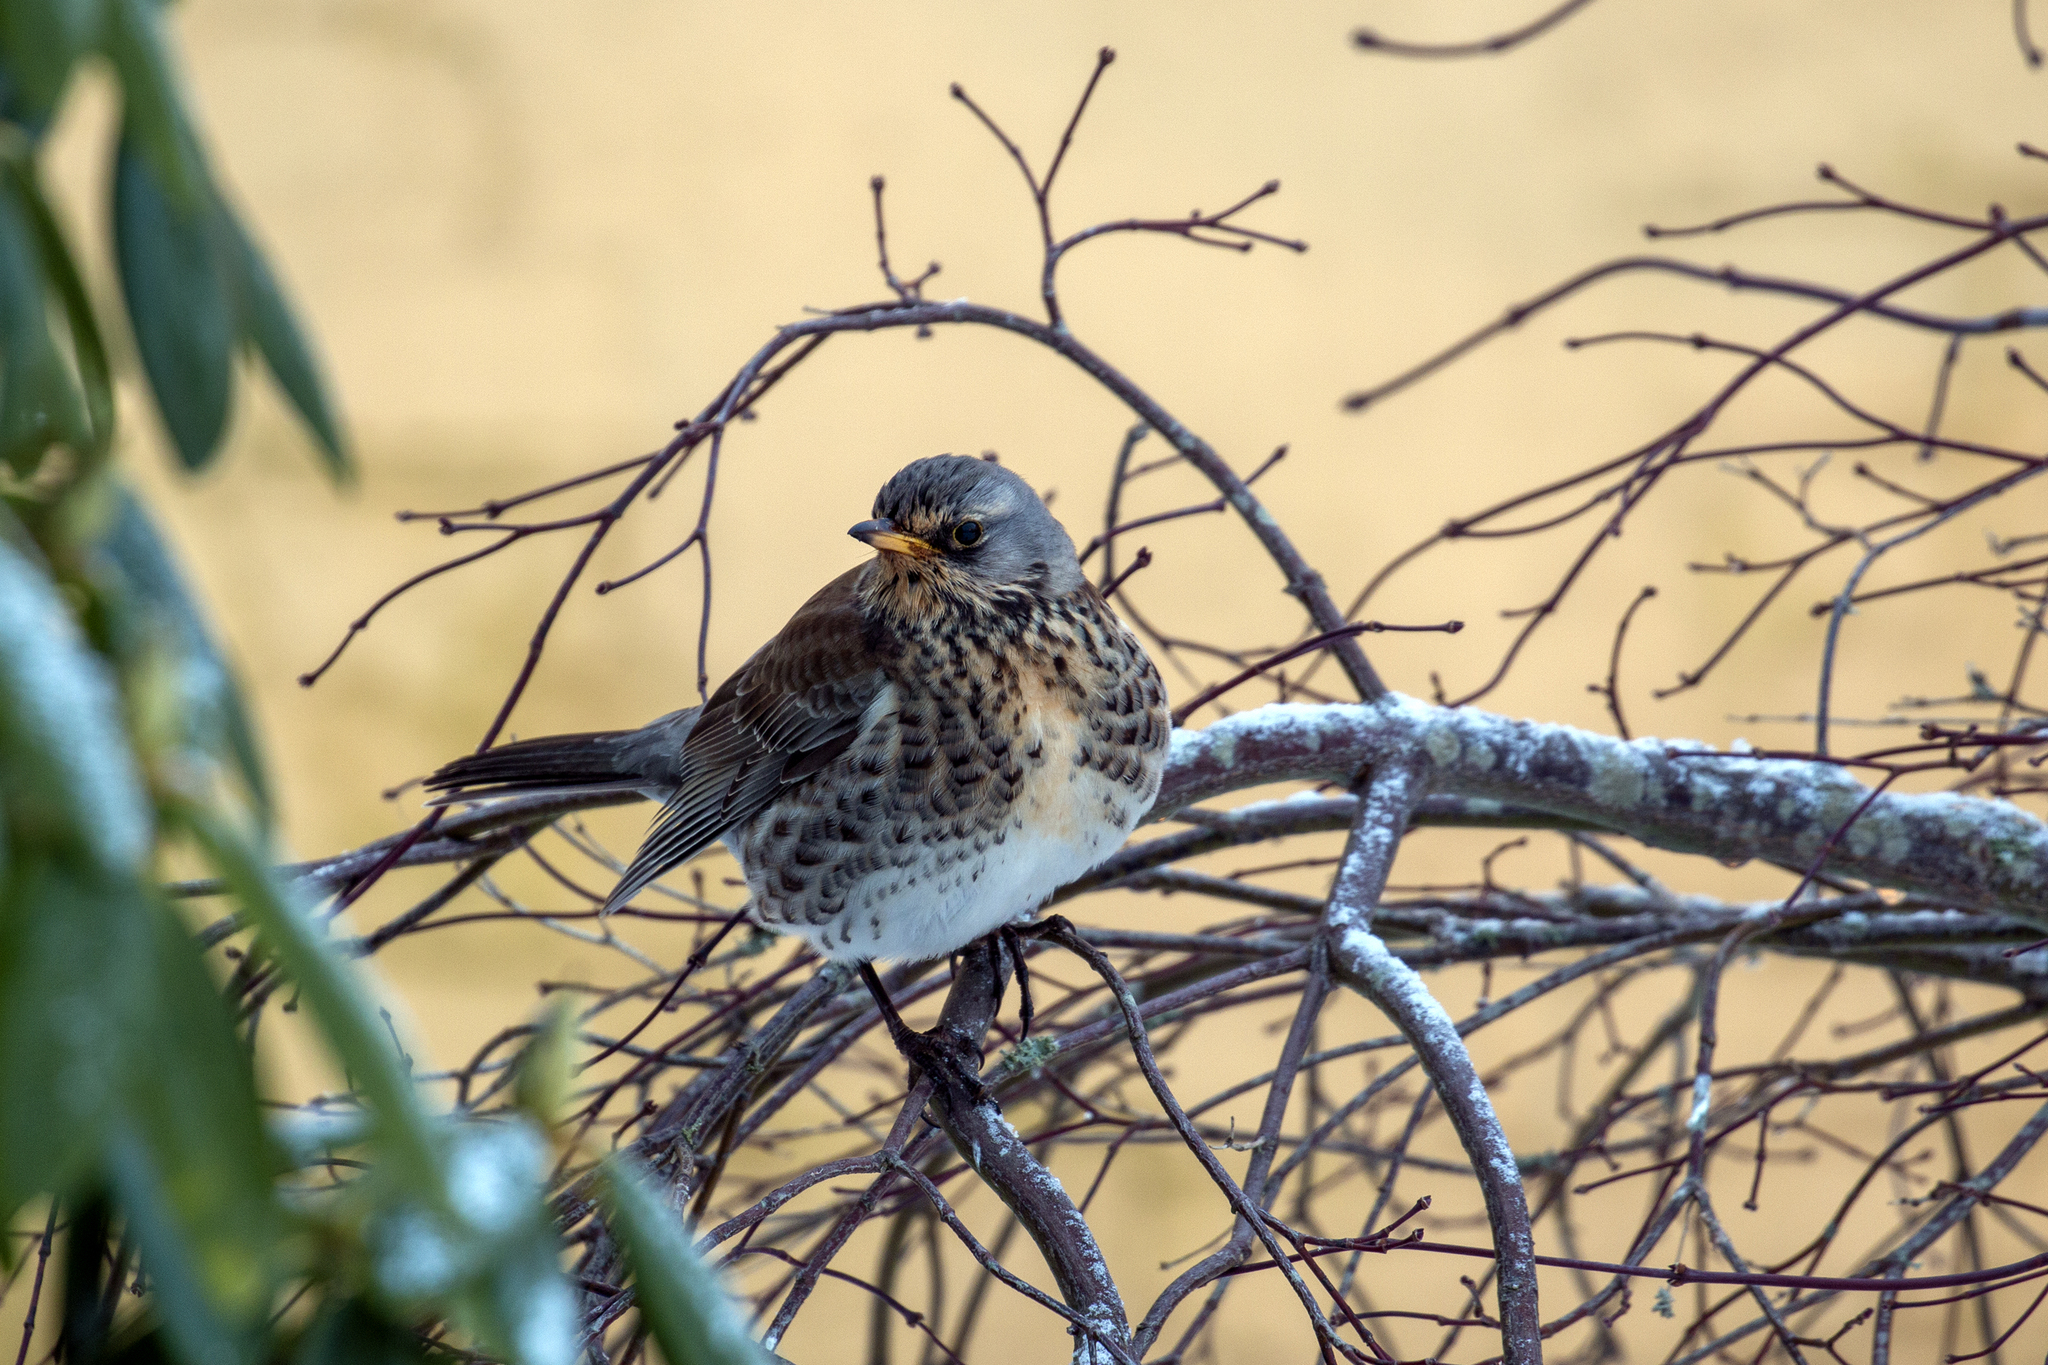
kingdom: Animalia
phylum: Chordata
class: Aves
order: Passeriformes
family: Turdidae
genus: Turdus
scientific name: Turdus pilaris
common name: Fieldfare
